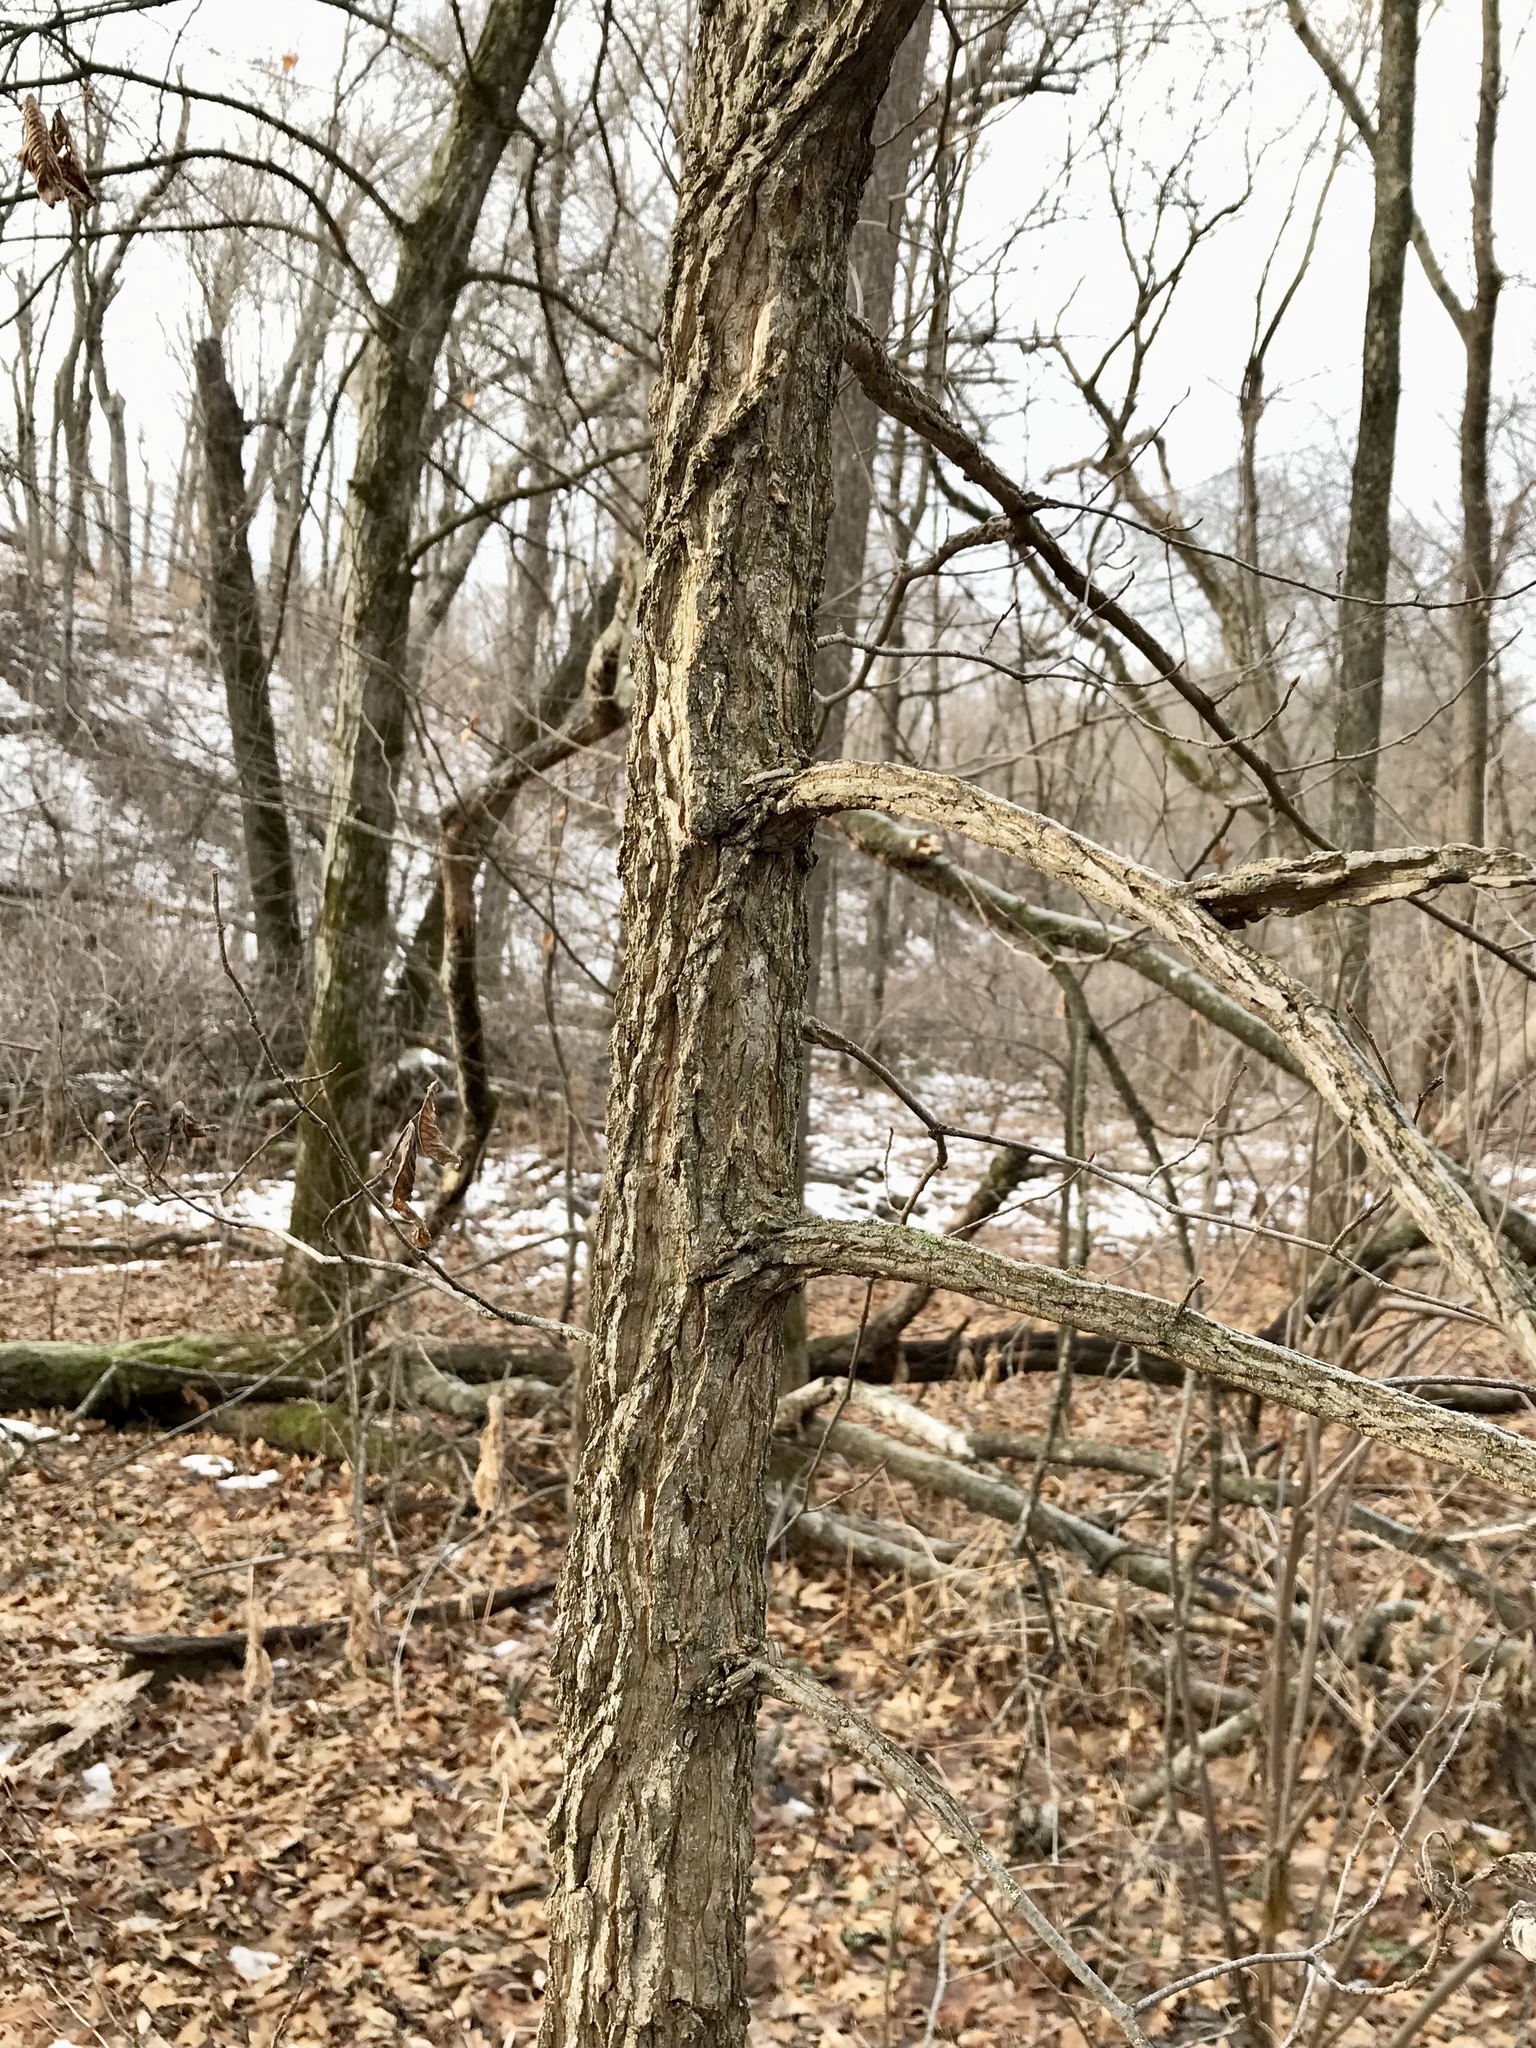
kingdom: Plantae
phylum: Tracheophyta
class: Magnoliopsida
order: Rosales
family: Ulmaceae
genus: Ulmus
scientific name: Ulmus thomasii
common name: Rock elm
